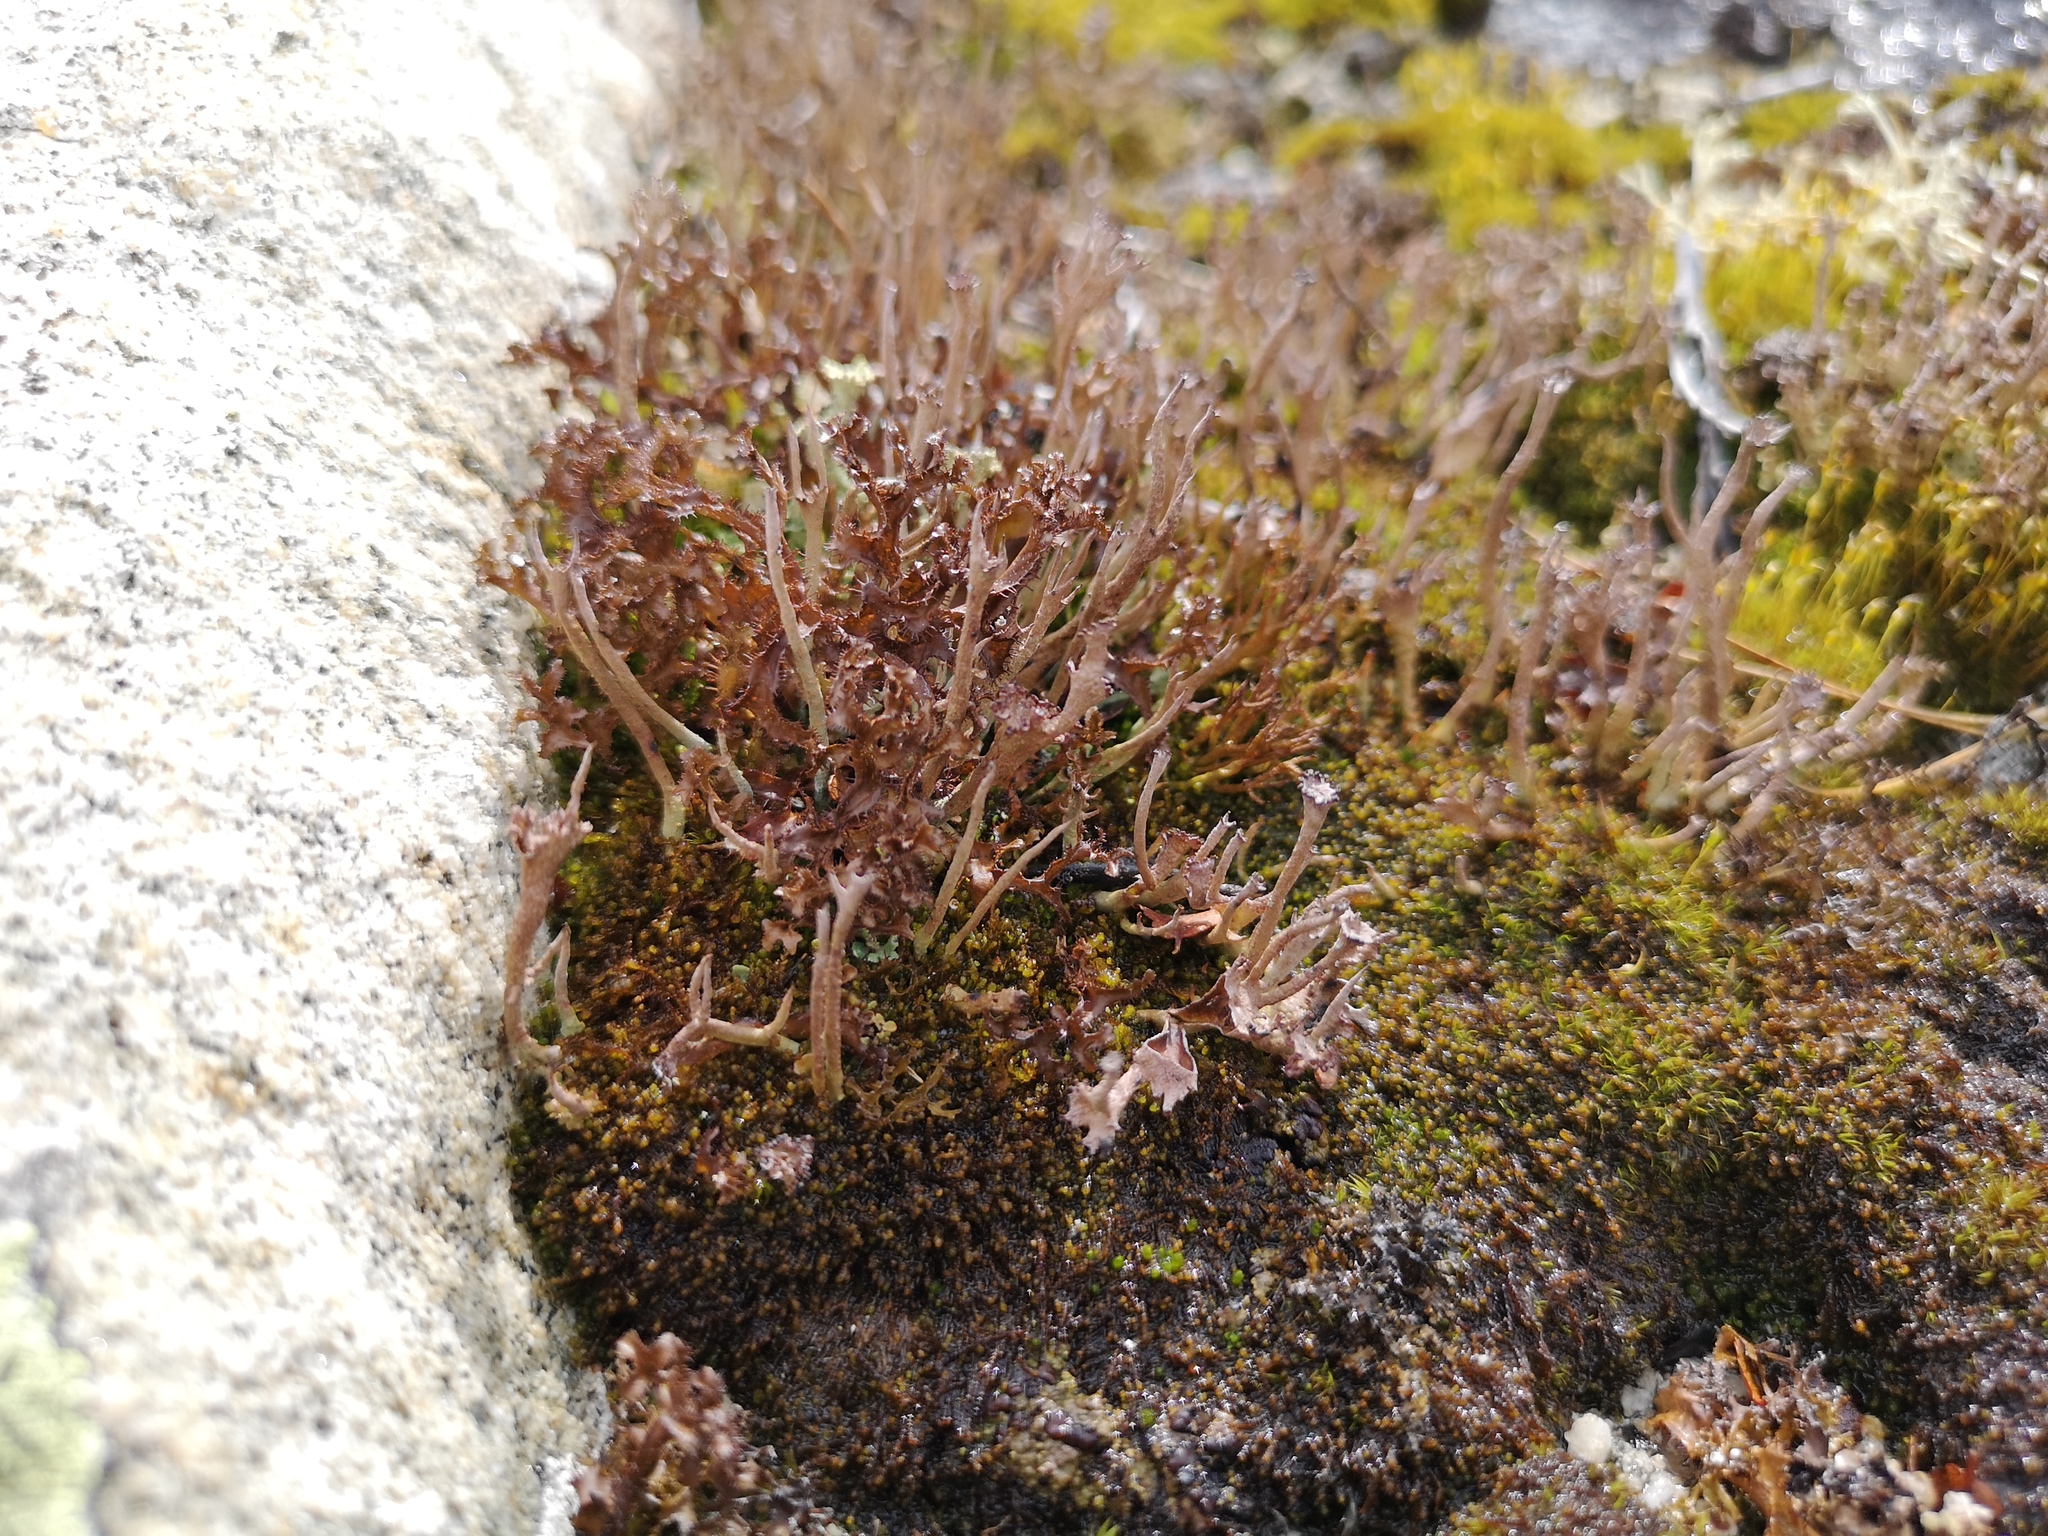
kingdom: Fungi
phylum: Ascomycota
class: Lecanoromycetes
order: Lecanorales
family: Parmeliaceae
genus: Cetraria
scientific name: Cetraria islandica
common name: Iceland lichen
